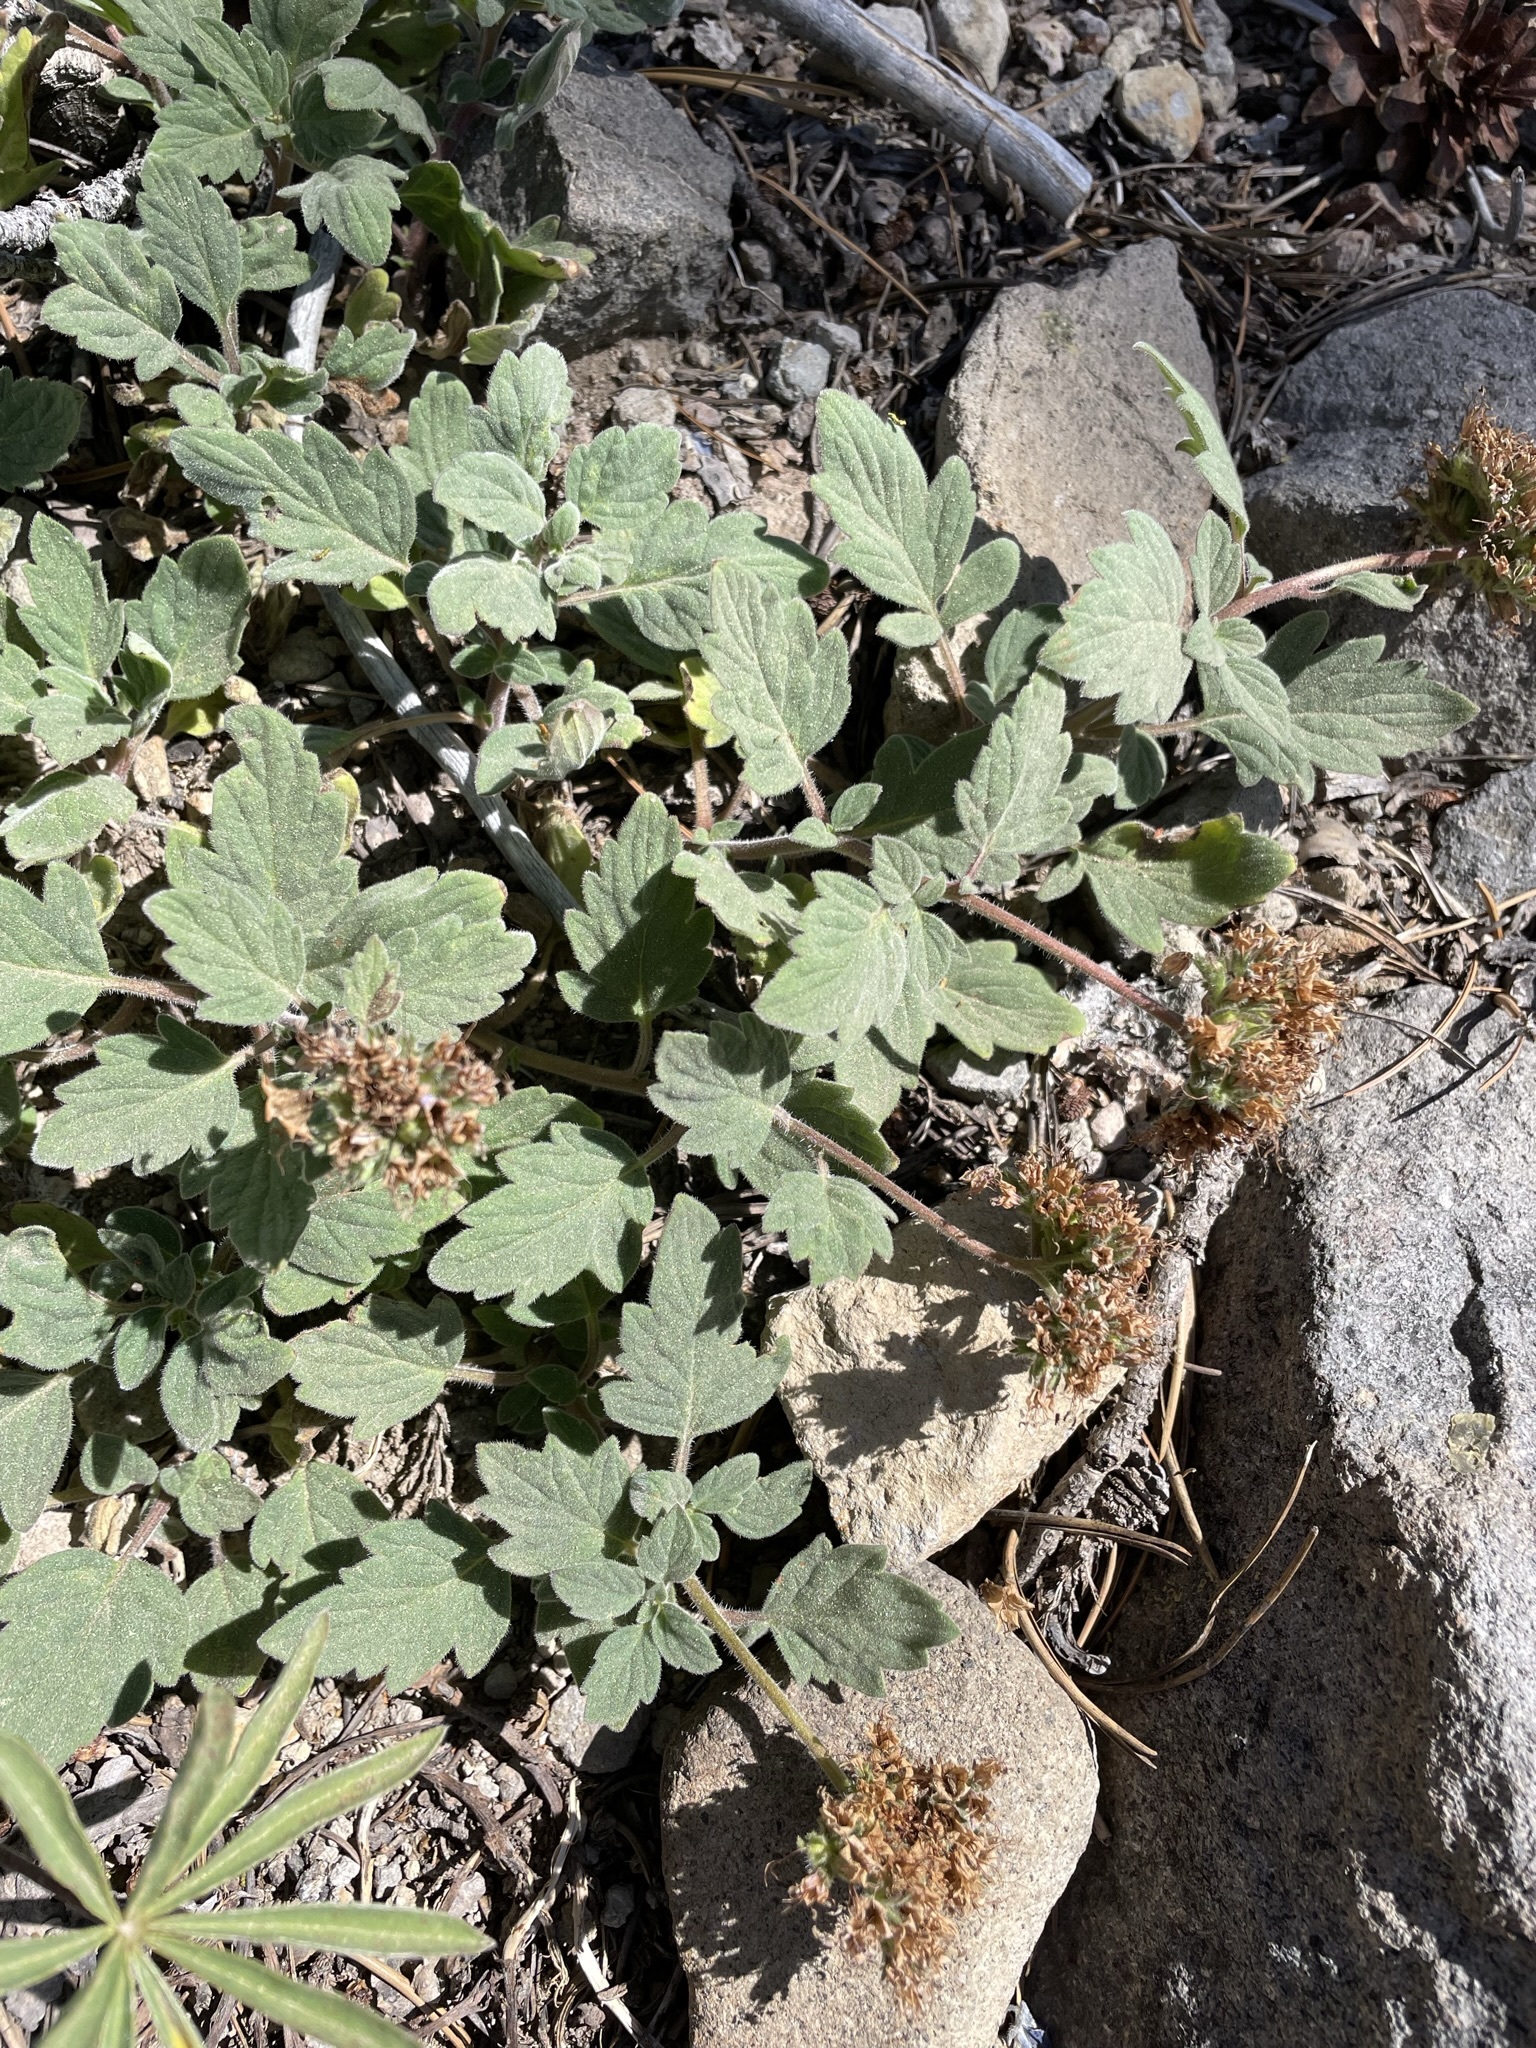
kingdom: Plantae
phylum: Tracheophyta
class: Magnoliopsida
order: Boraginales
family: Hydrophyllaceae
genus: Phacelia
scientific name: Phacelia hydrophylloides
